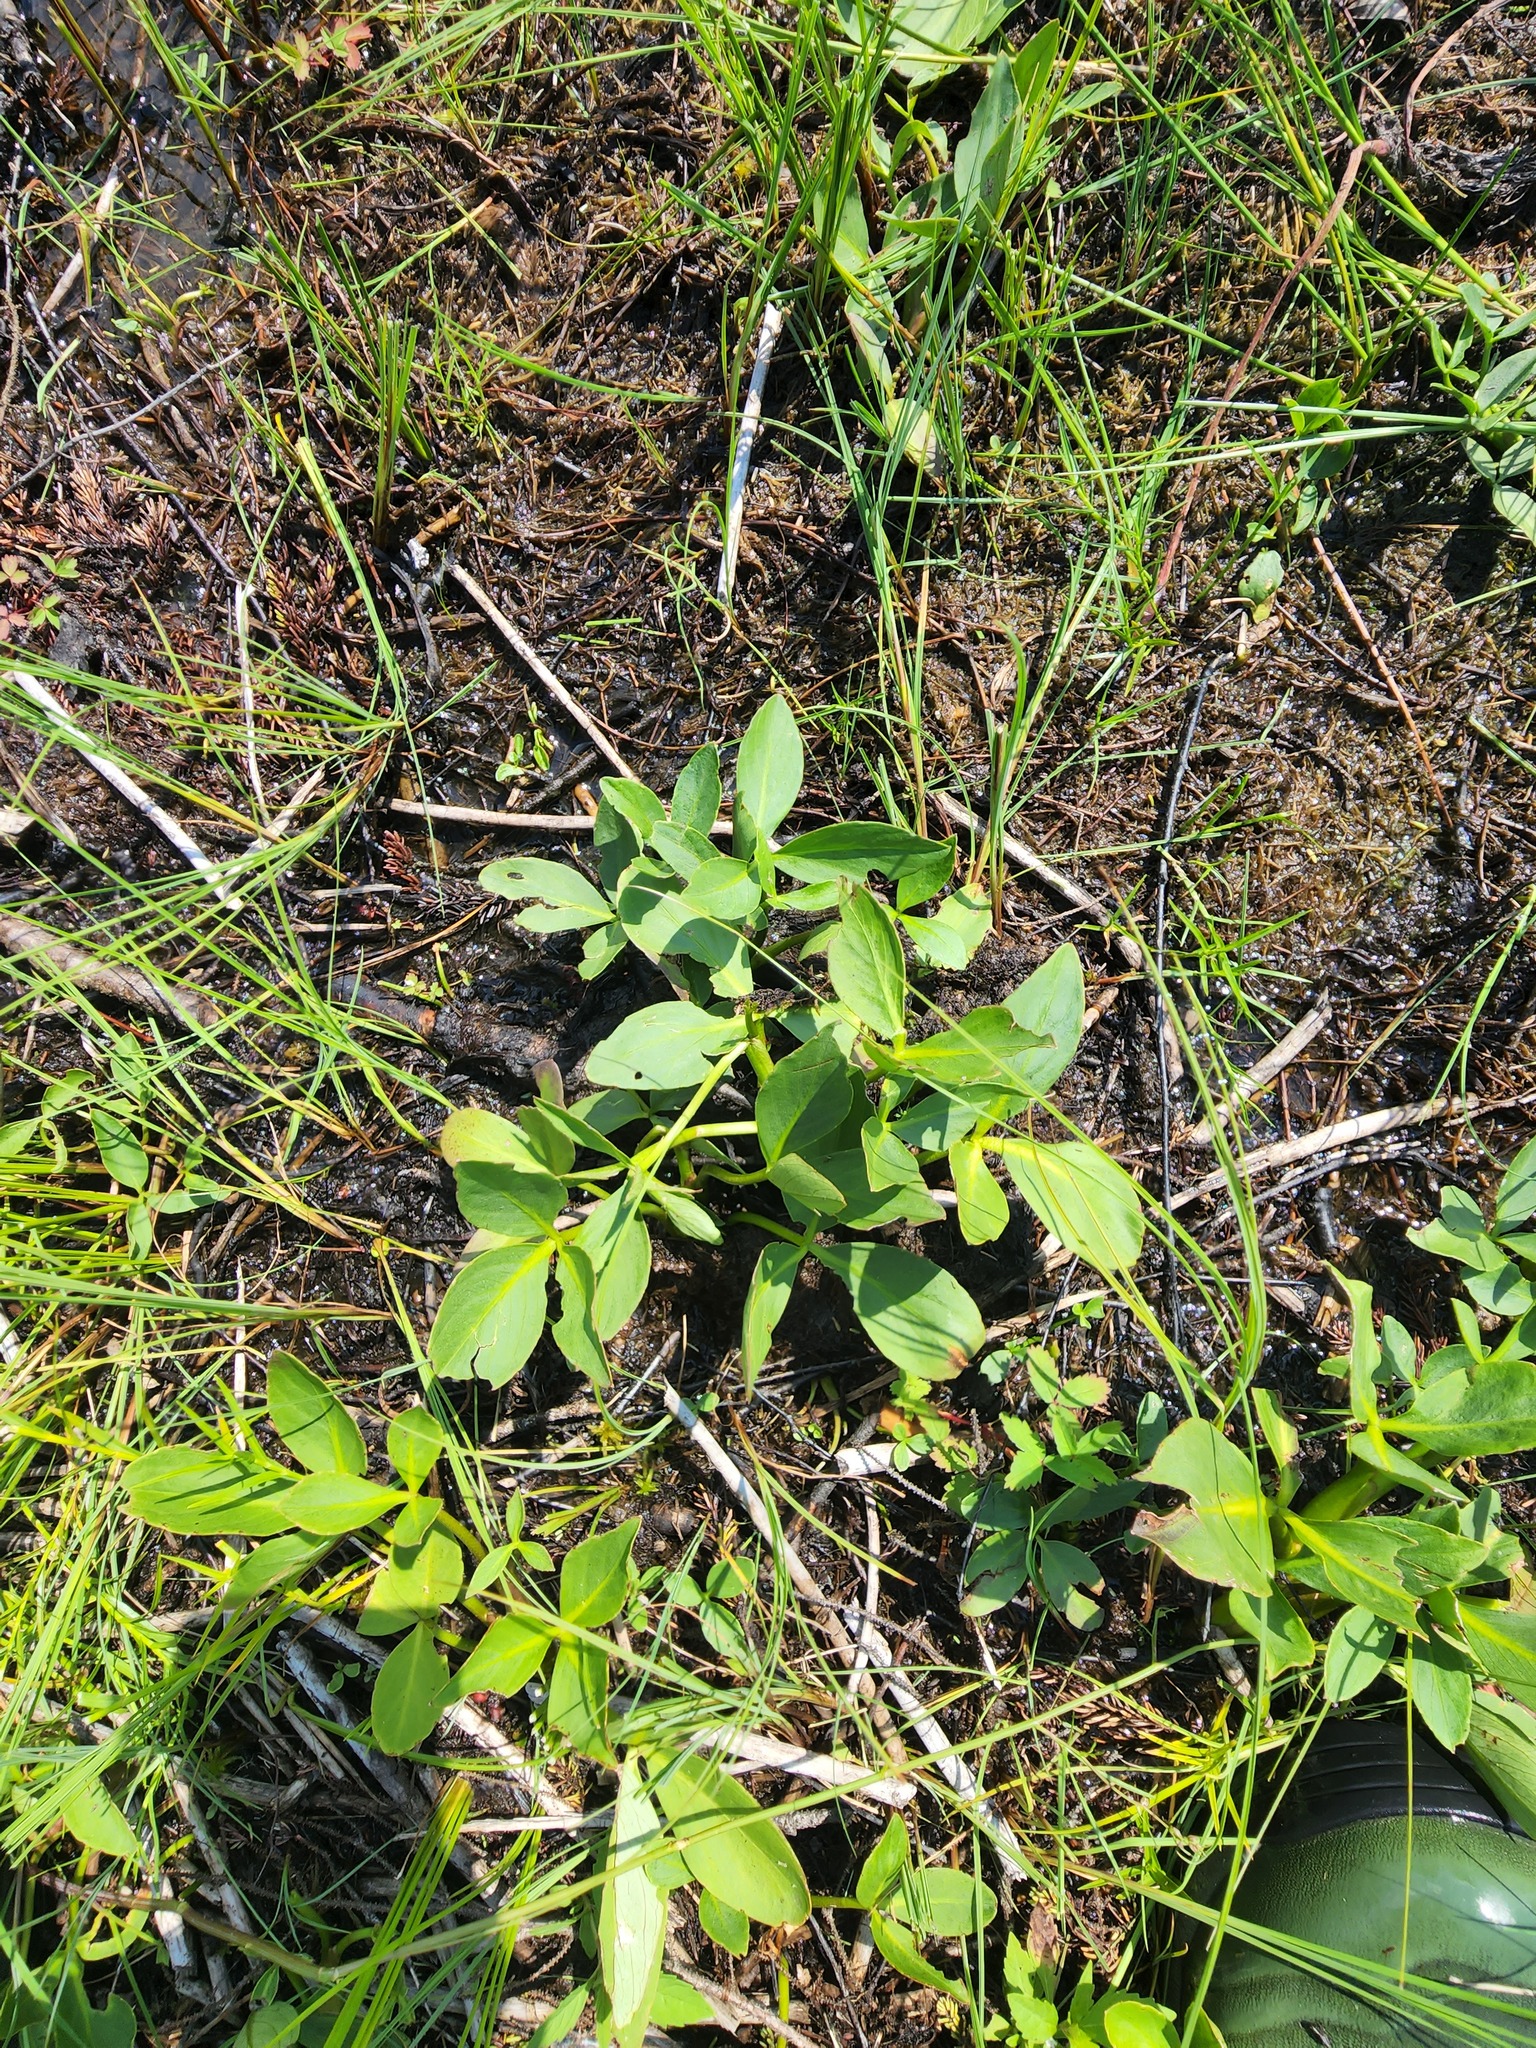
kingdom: Plantae
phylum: Tracheophyta
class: Magnoliopsida
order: Asterales
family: Menyanthaceae
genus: Menyanthes
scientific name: Menyanthes trifoliata
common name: Bogbean
